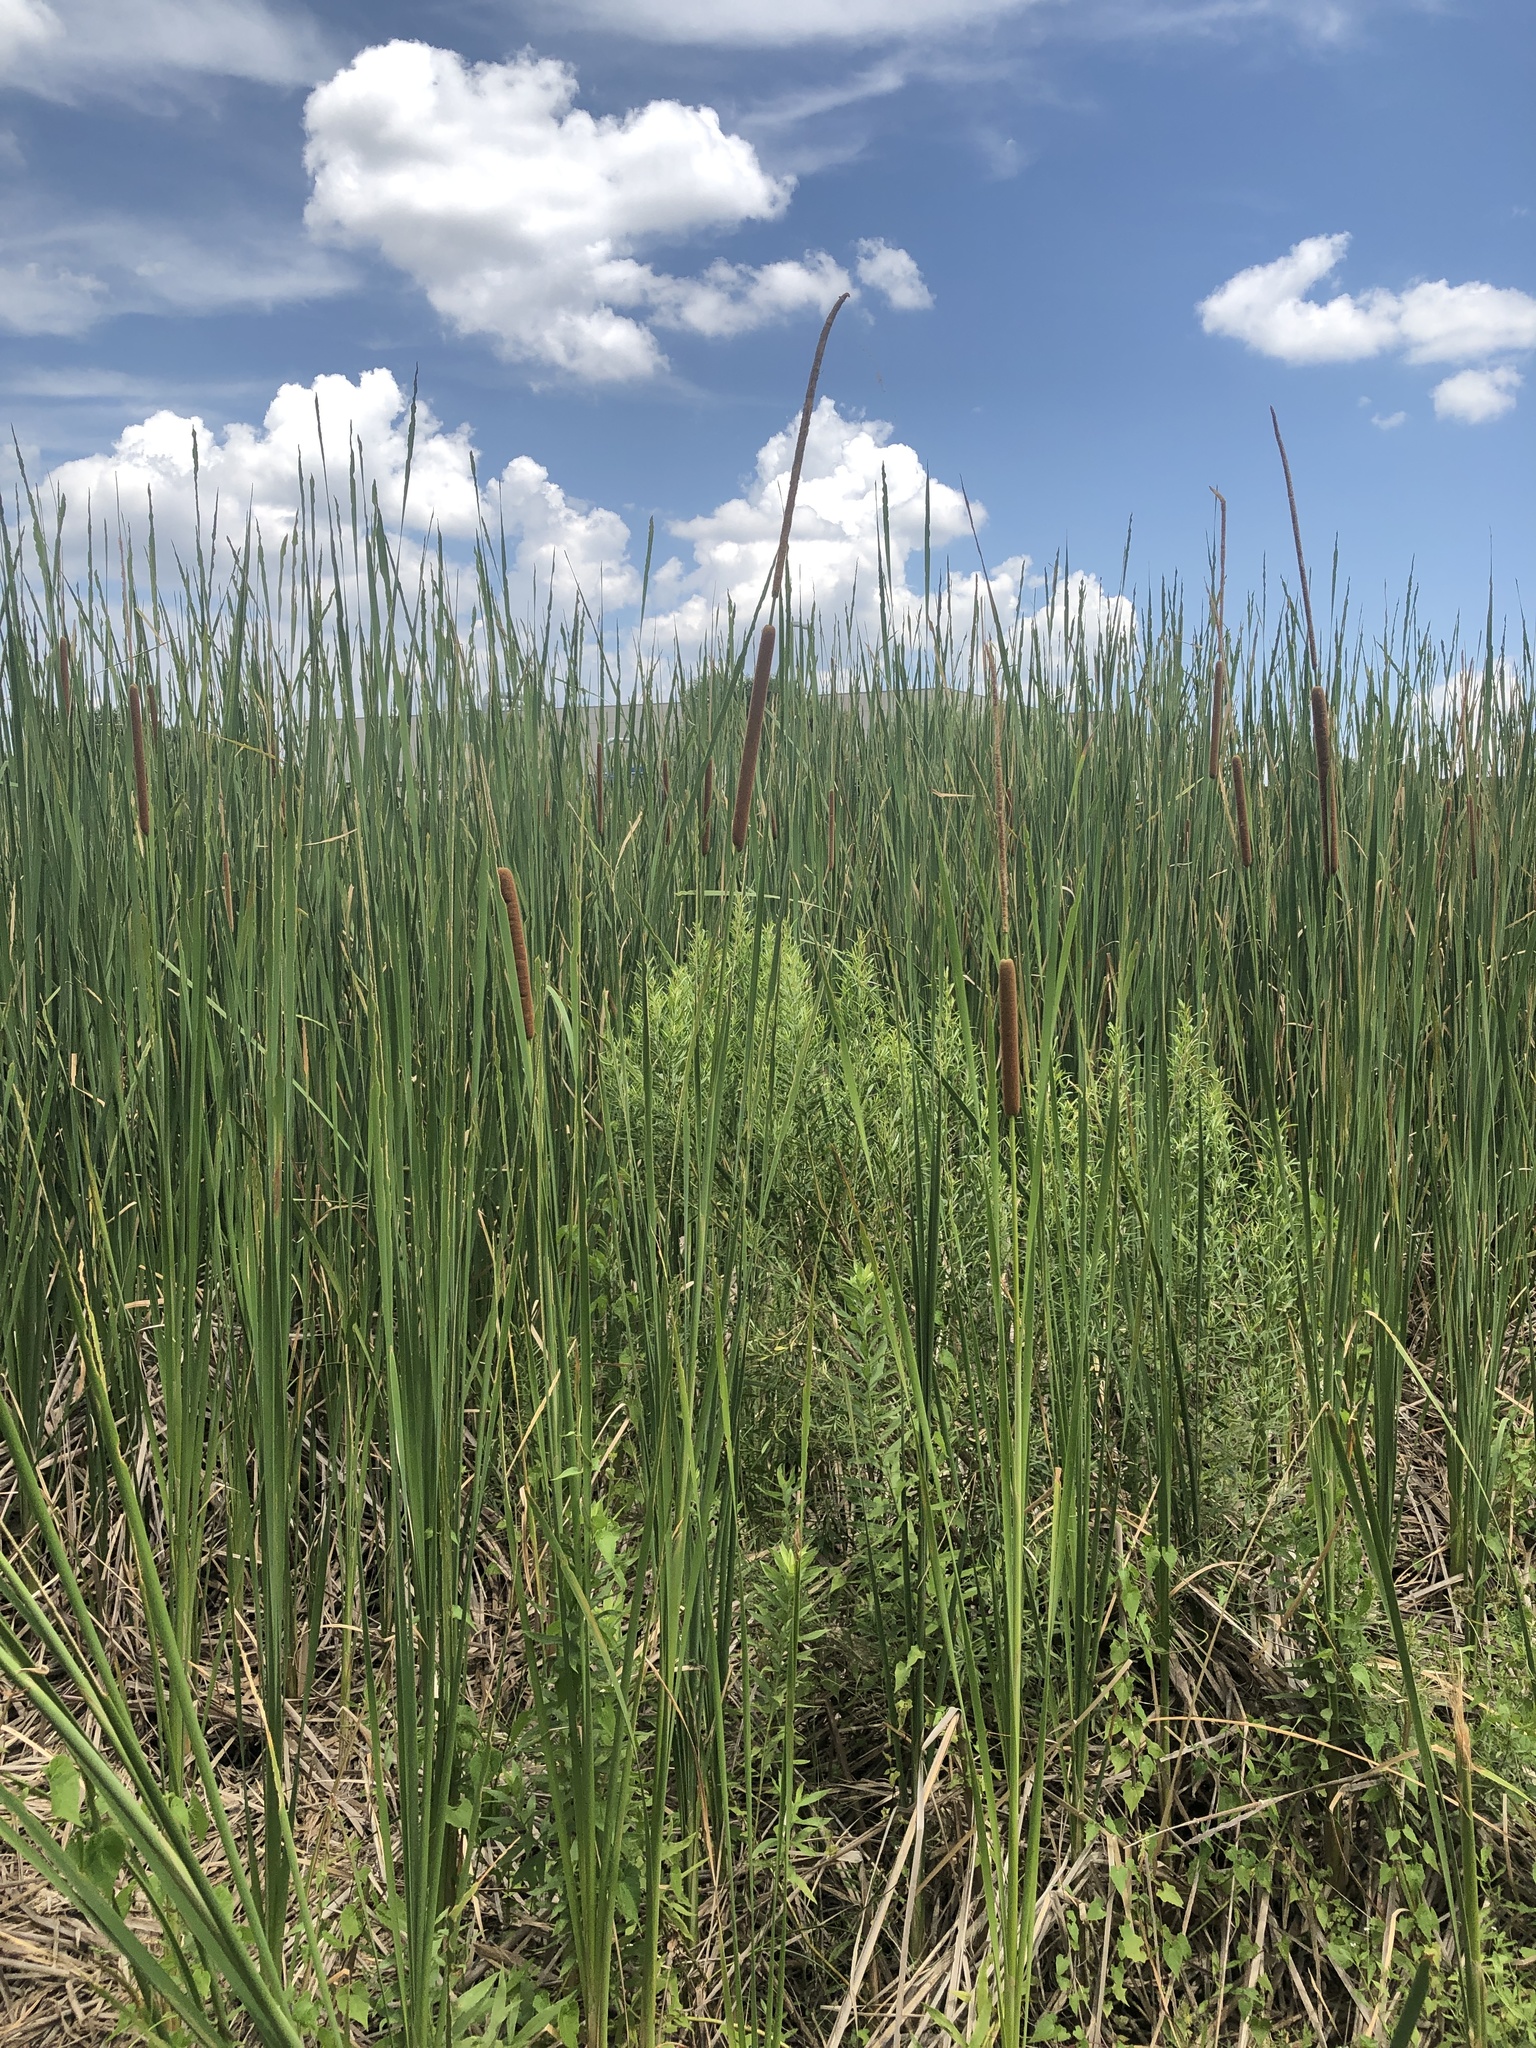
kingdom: Plantae
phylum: Tracheophyta
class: Liliopsida
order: Poales
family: Typhaceae
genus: Typha
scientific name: Typha domingensis
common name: Southern cattail
